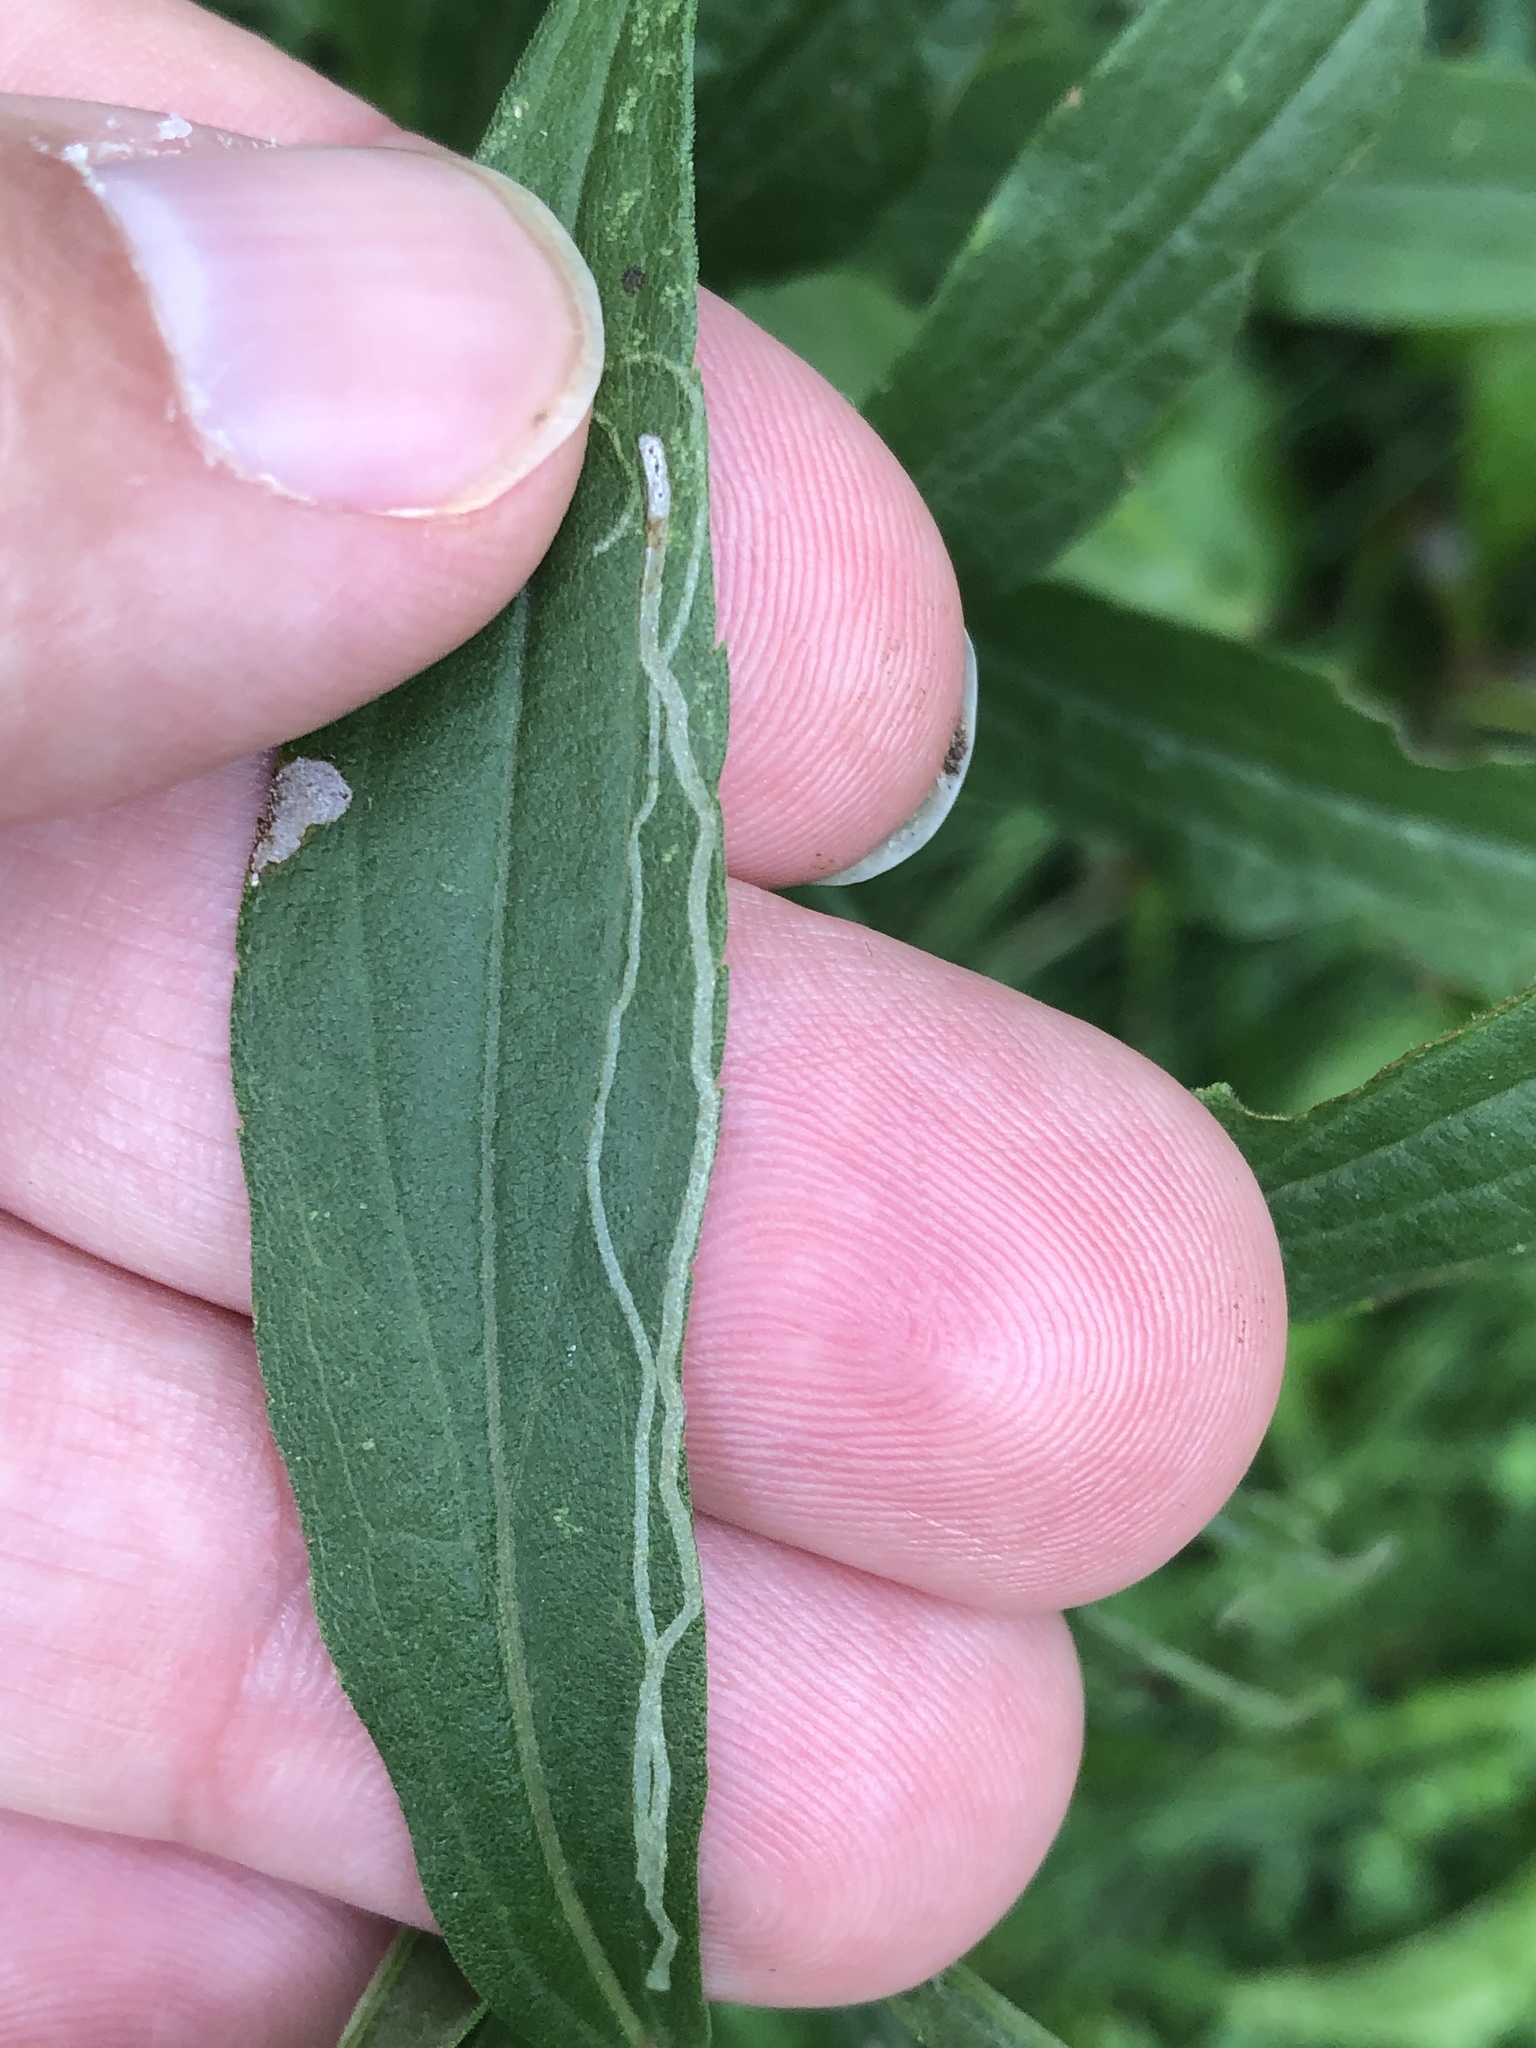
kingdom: Animalia
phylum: Arthropoda
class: Insecta
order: Diptera
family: Agromyzidae
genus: Ophiomyia
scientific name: Ophiomyia maura
